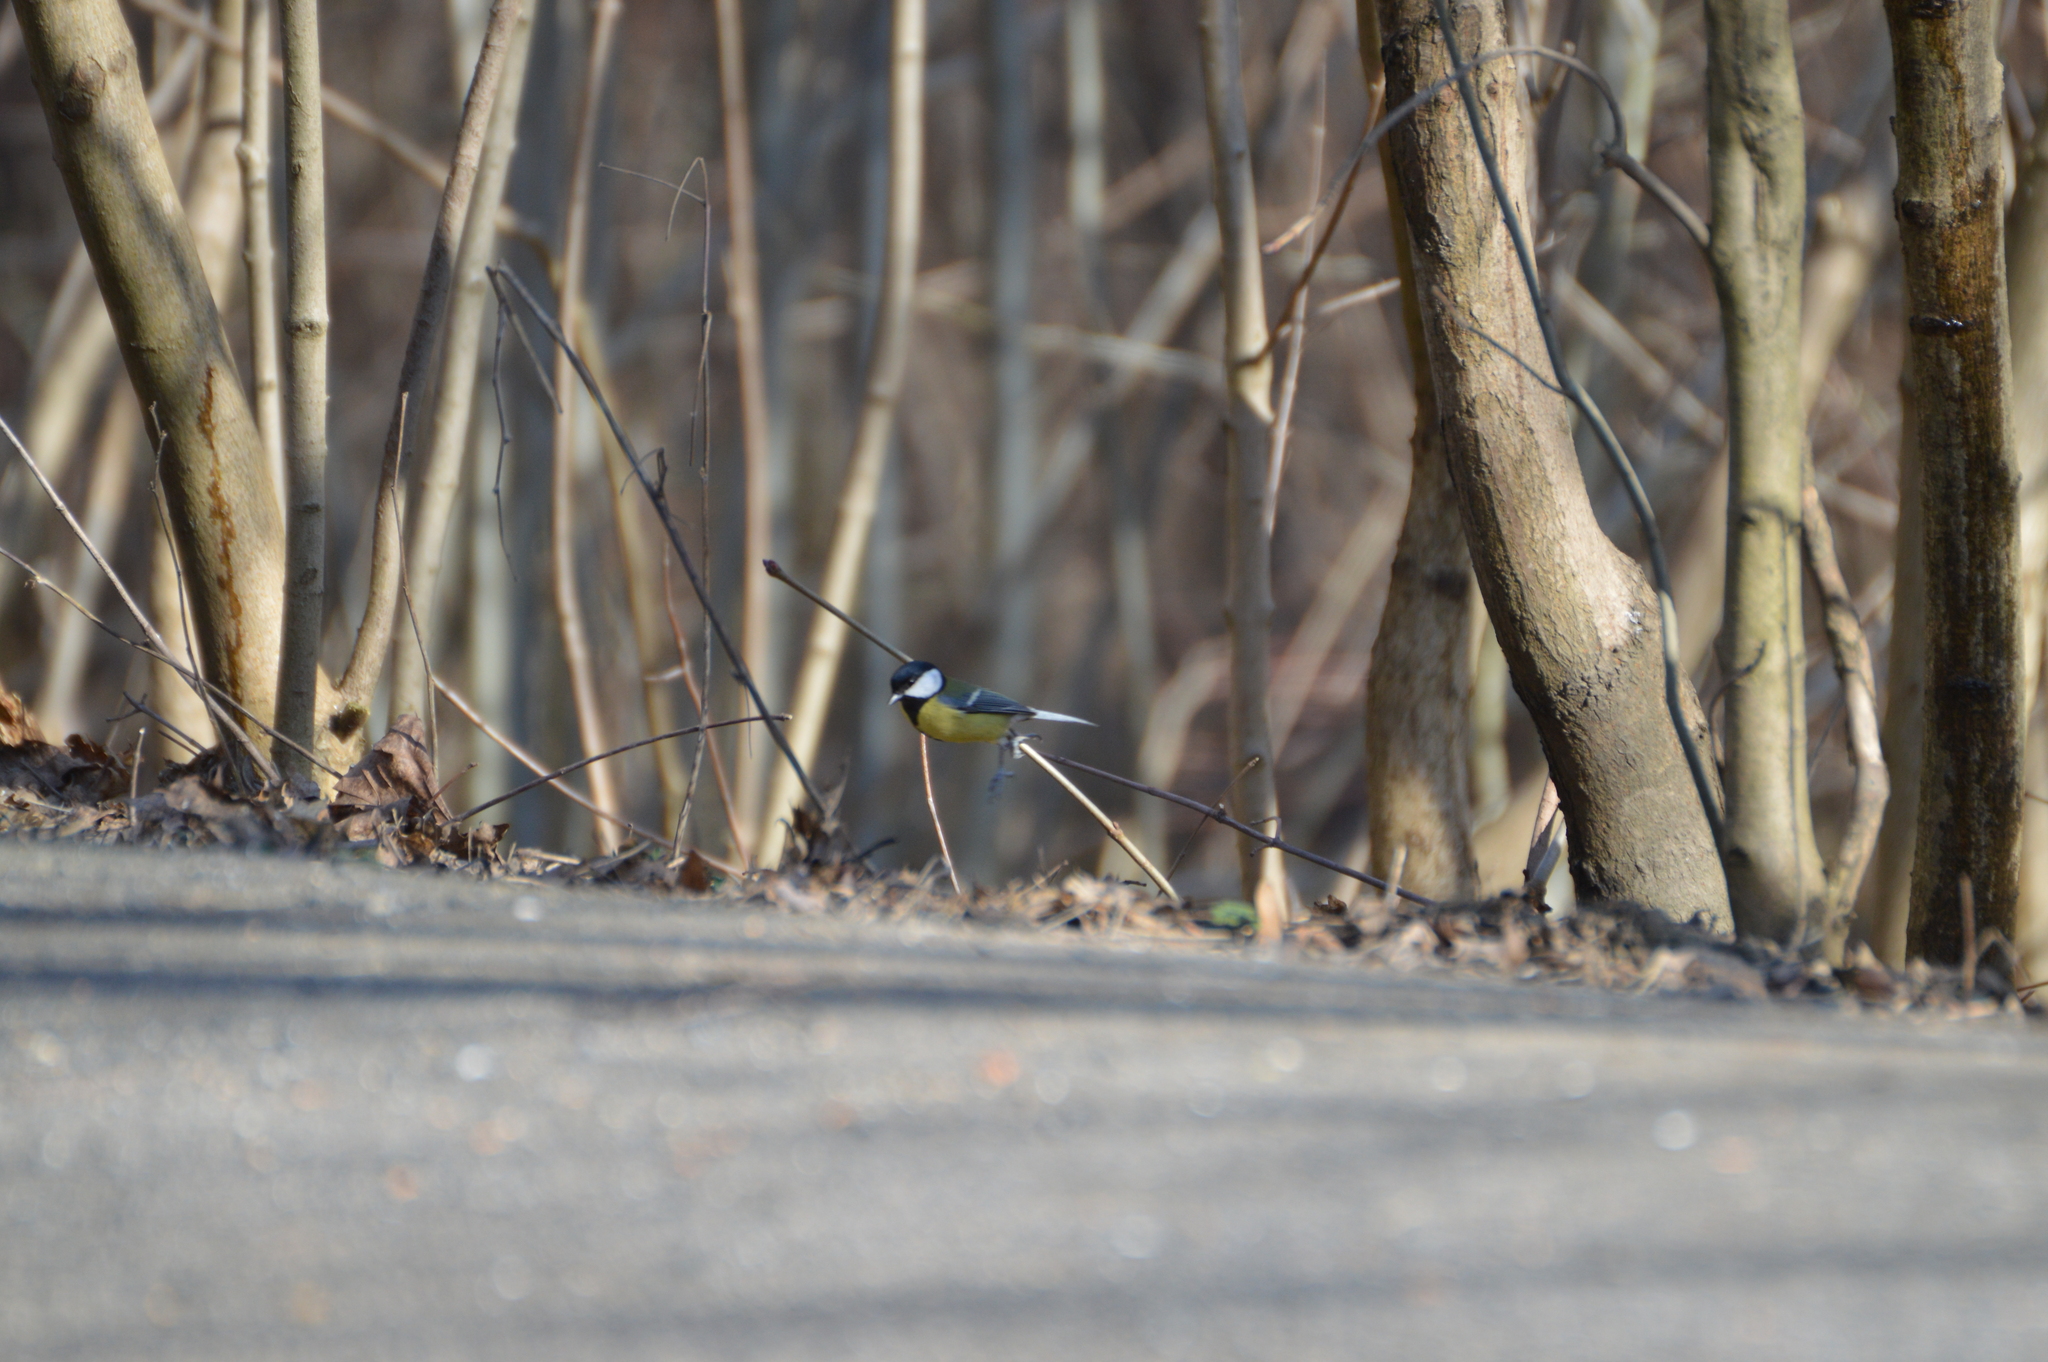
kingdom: Animalia
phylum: Chordata
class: Aves
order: Passeriformes
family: Paridae
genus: Parus
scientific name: Parus major
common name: Great tit
